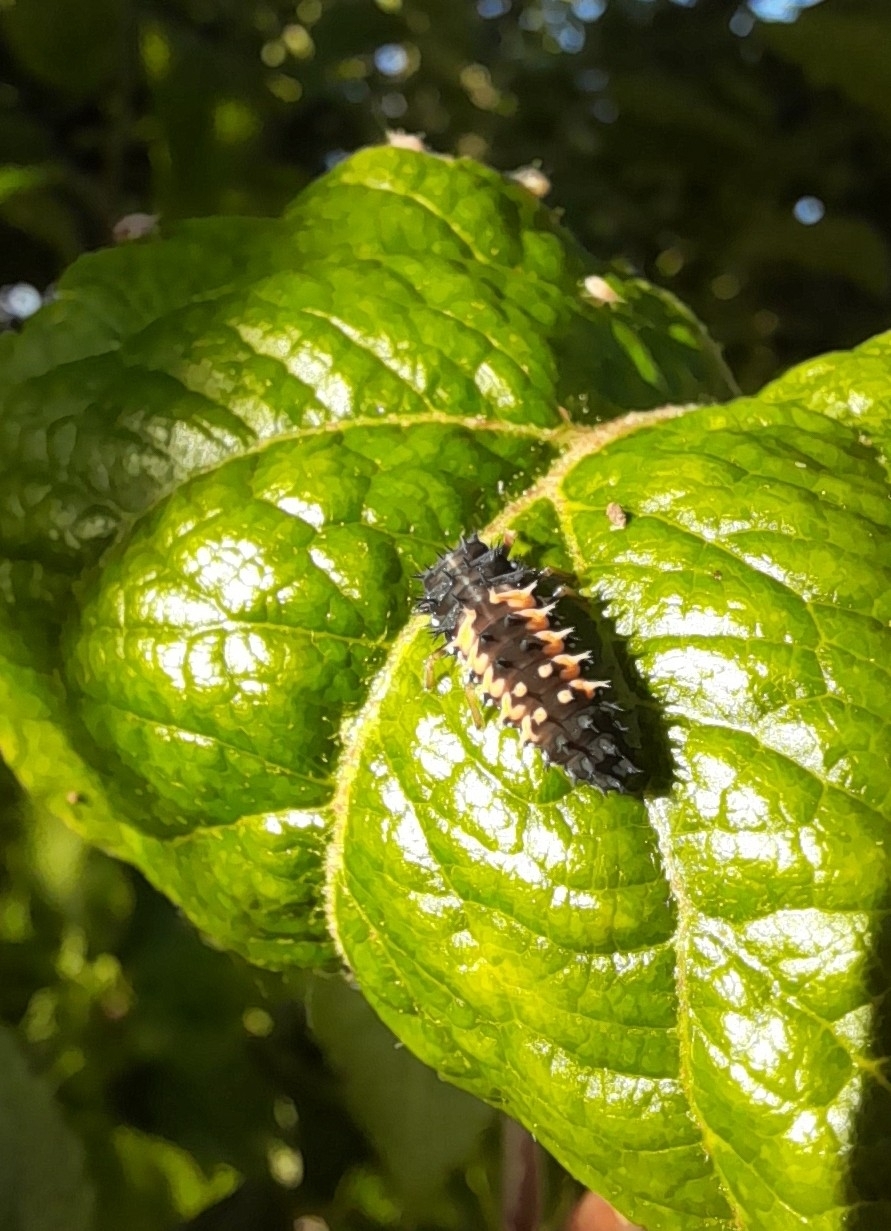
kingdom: Animalia
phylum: Arthropoda
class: Insecta
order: Coleoptera
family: Coccinellidae
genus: Harmonia
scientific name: Harmonia axyridis
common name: Harlequin ladybird
